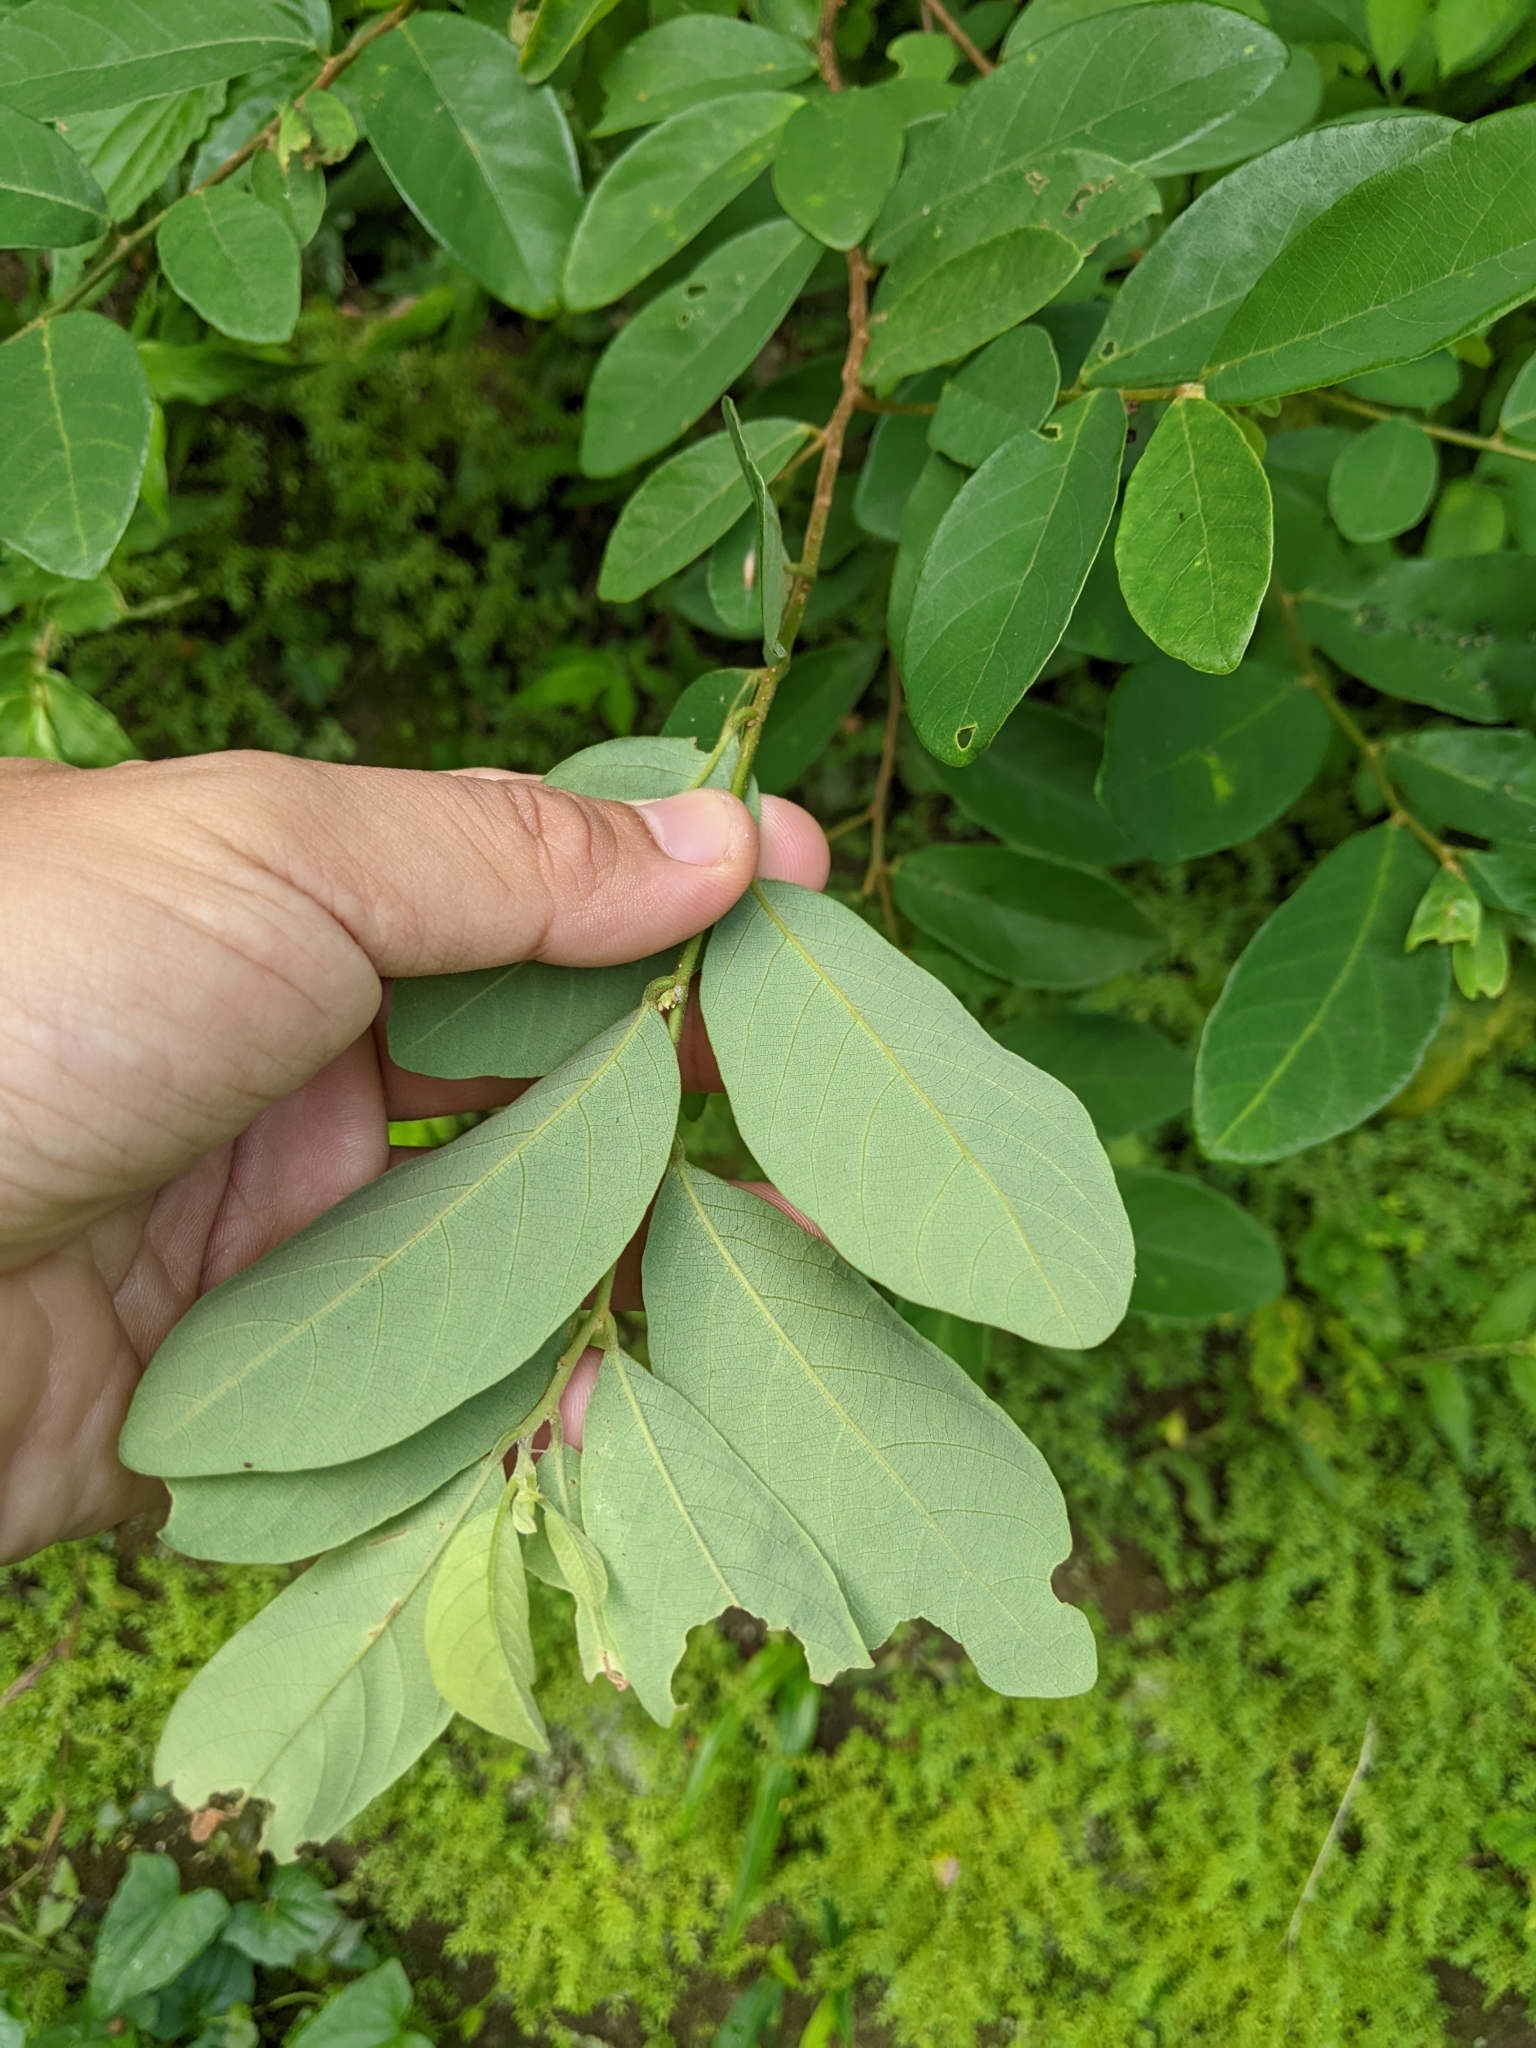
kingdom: Plantae
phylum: Tracheophyta
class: Magnoliopsida
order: Malpighiales
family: Phyllanthaceae
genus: Bridelia
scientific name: Bridelia tomentosa
